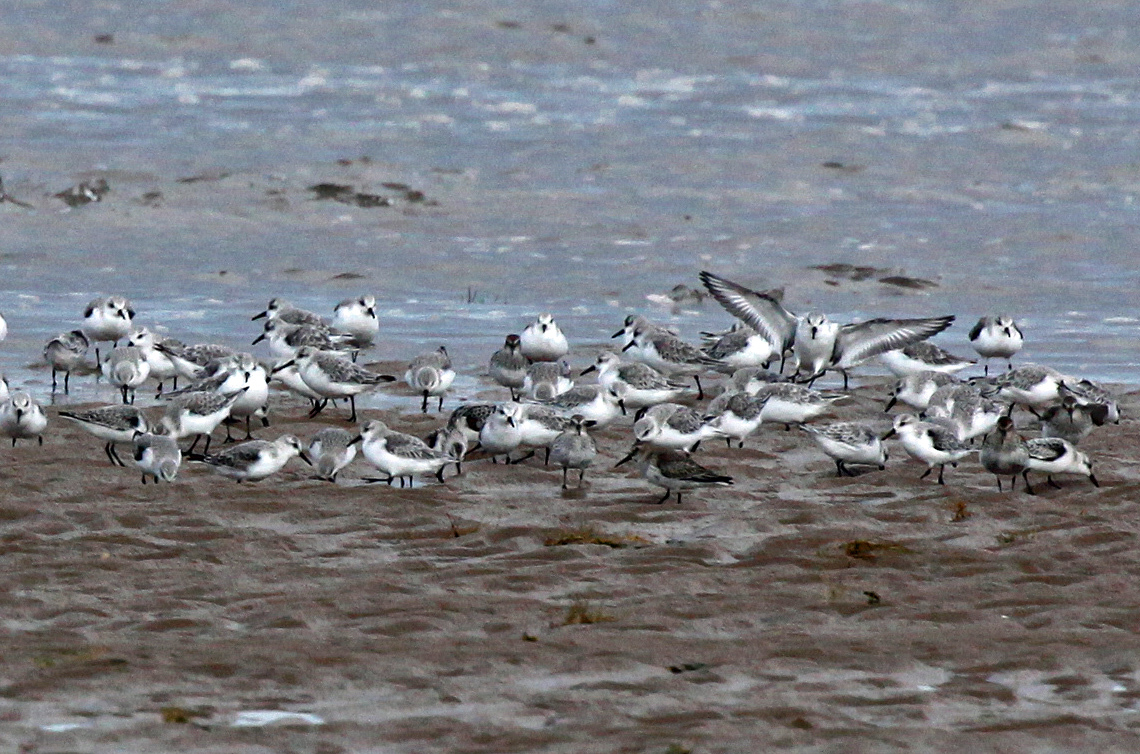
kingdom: Animalia
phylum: Chordata
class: Aves
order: Charadriiformes
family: Scolopacidae
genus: Calidris
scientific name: Calidris alba
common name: Sanderling
